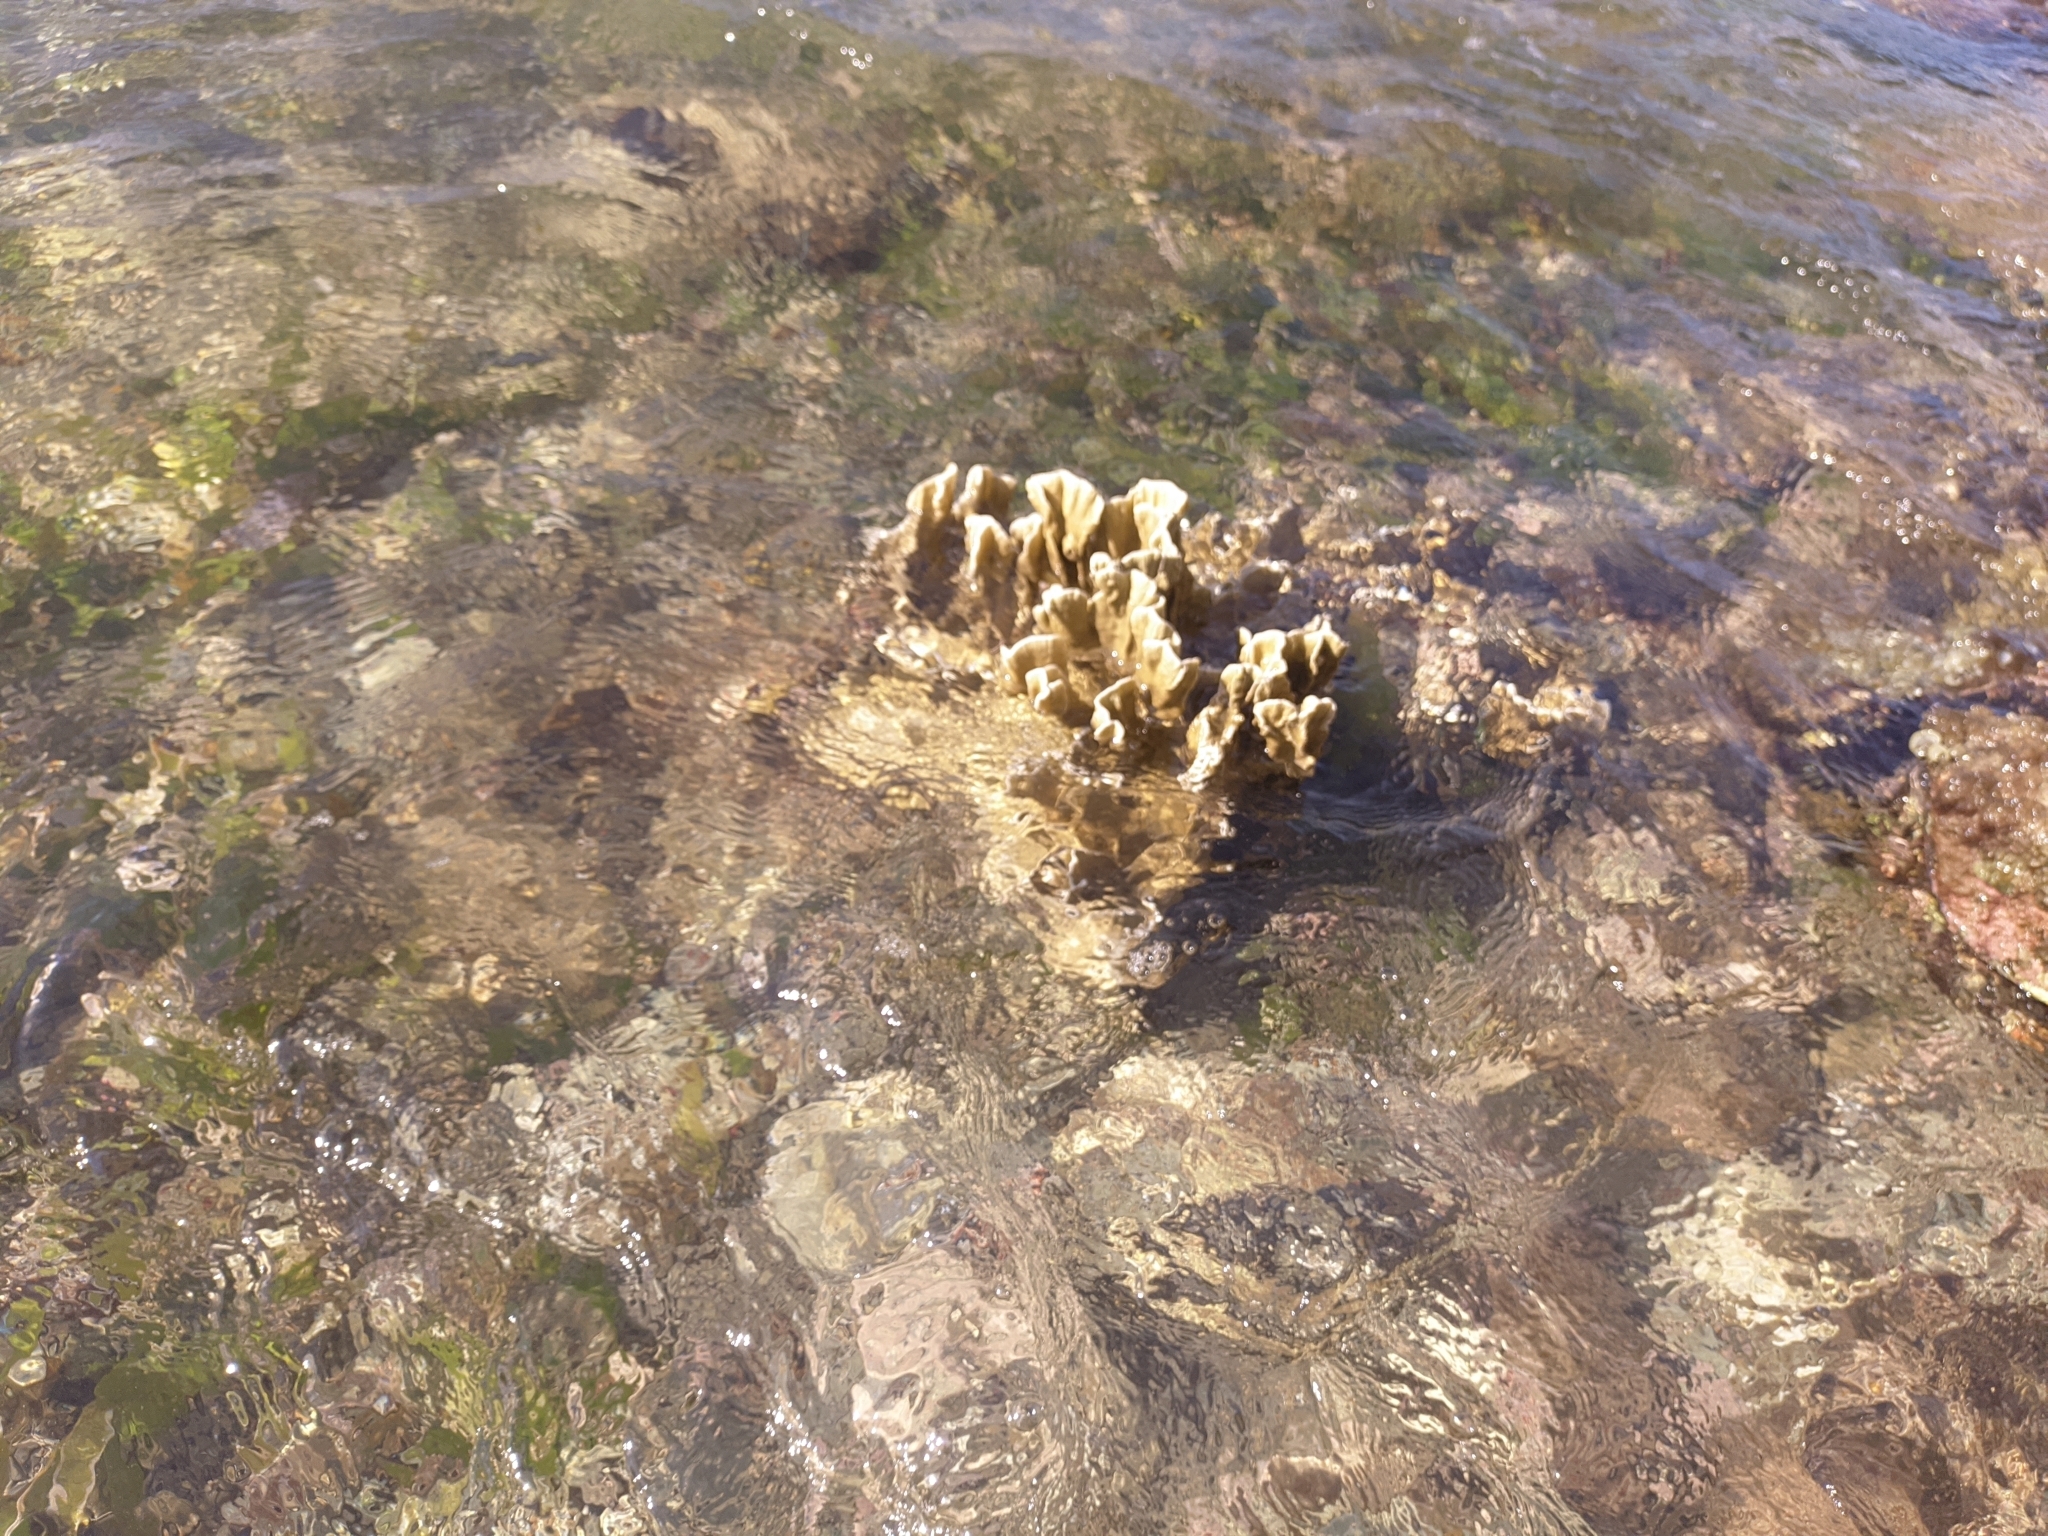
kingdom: Animalia
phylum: Cnidaria
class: Hydrozoa
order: Anthoathecata
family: Milleporidae
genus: Millepora
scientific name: Millepora complanata
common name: Bladed fire coral
